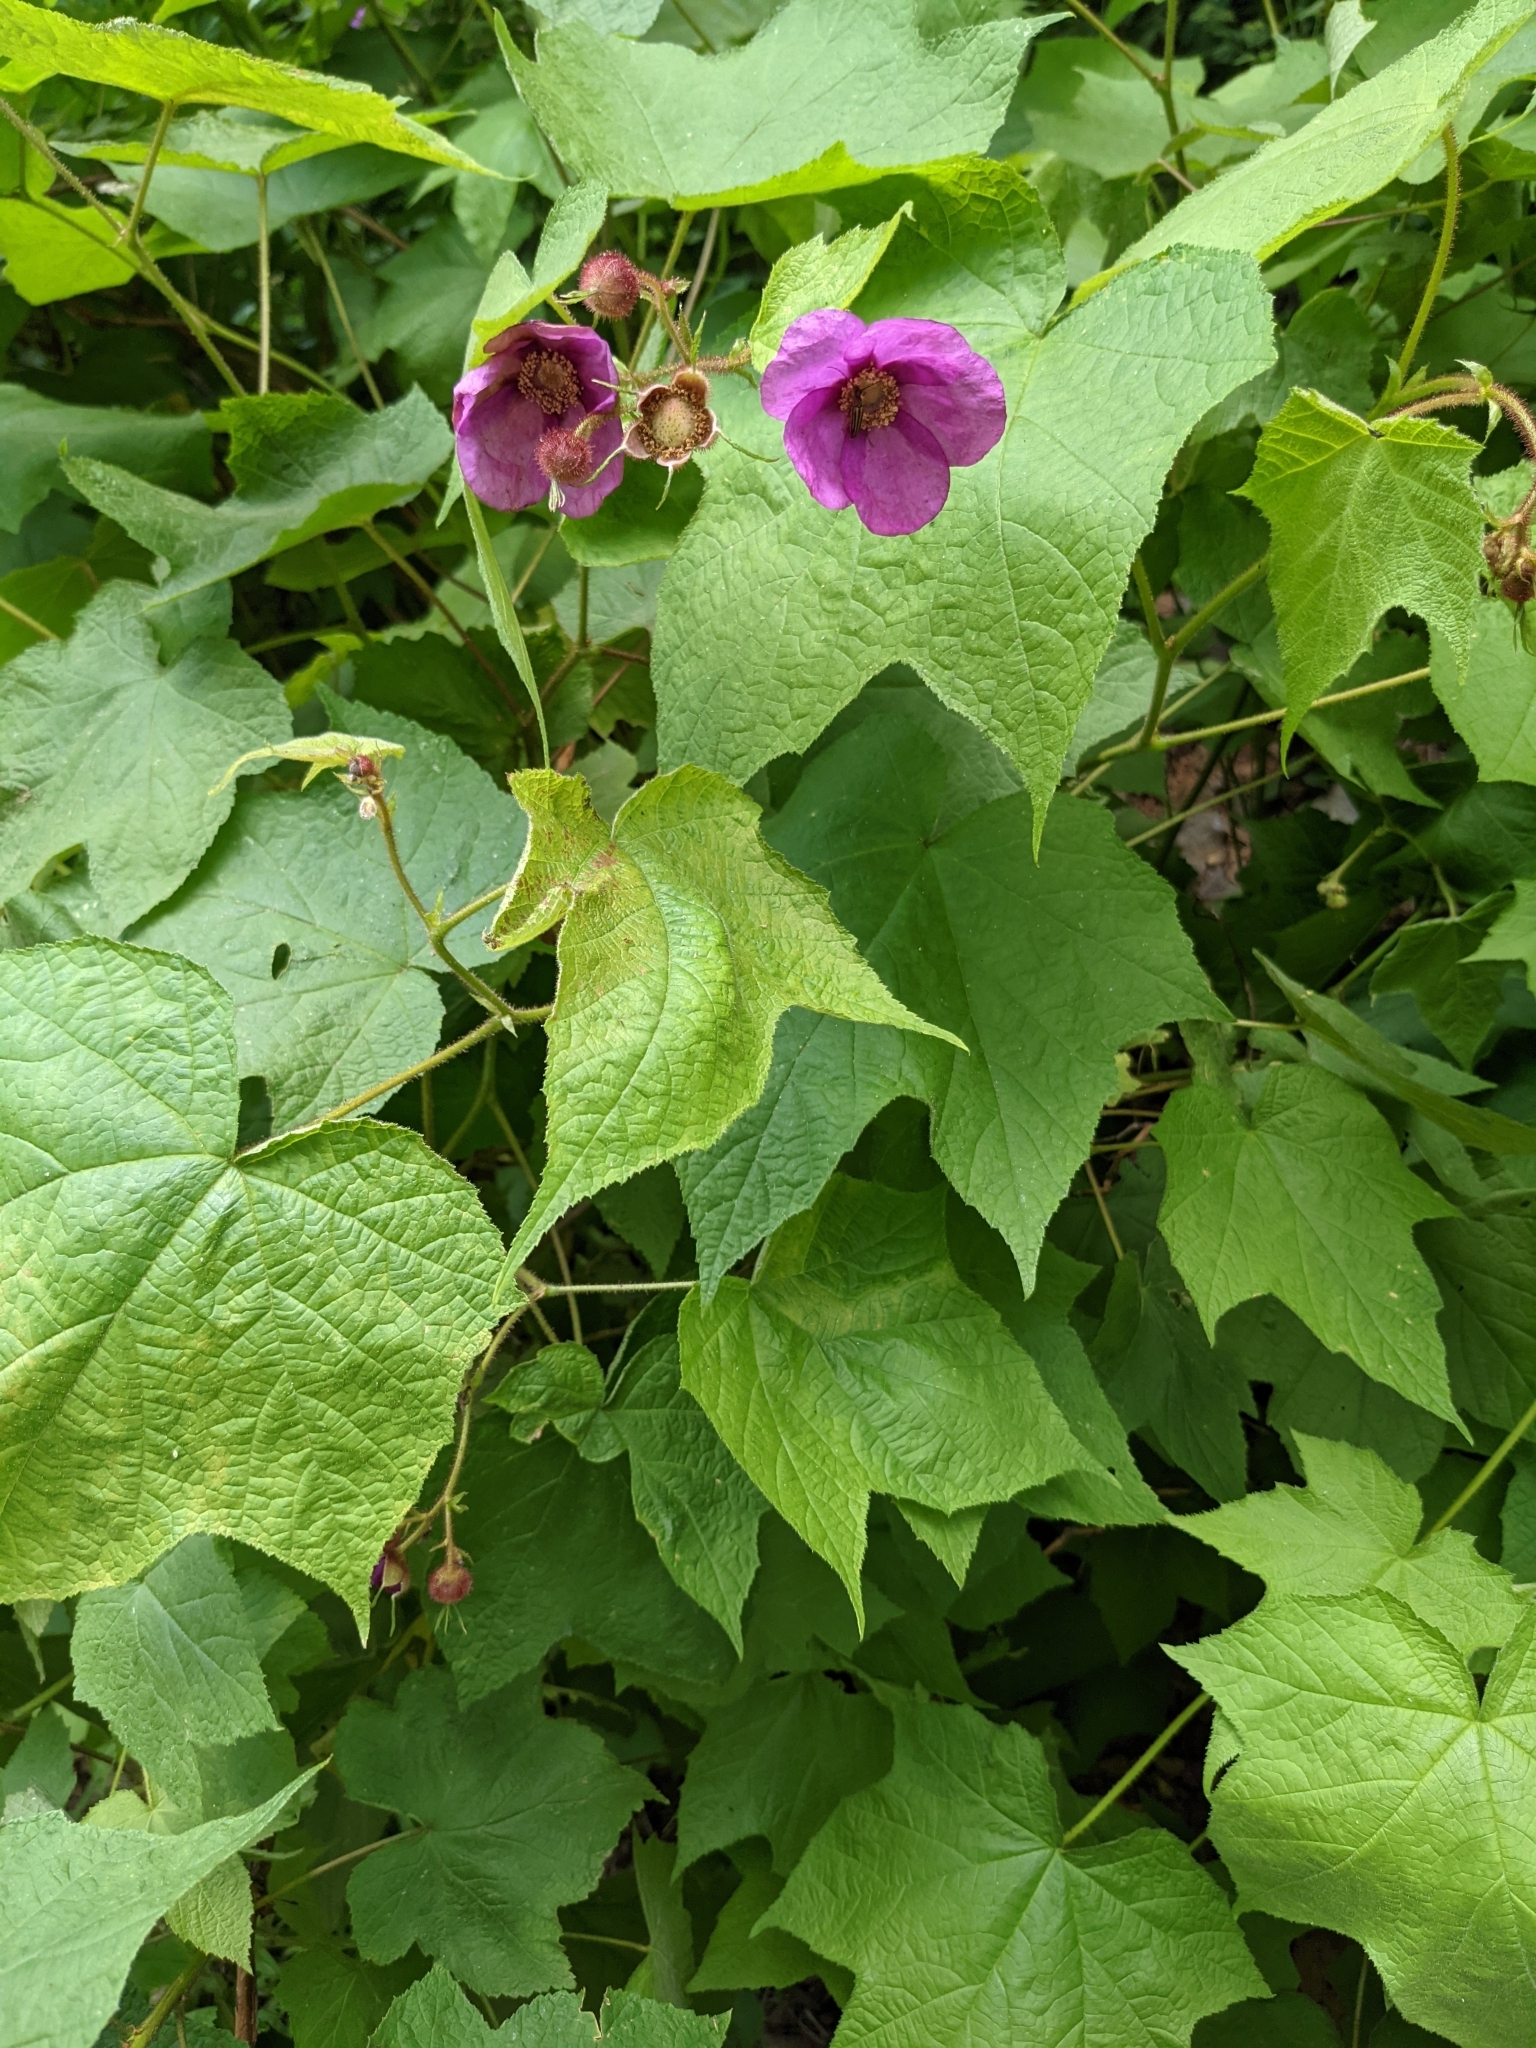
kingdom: Plantae
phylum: Tracheophyta
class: Magnoliopsida
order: Rosales
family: Rosaceae
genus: Rubus
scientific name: Rubus odoratus
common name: Purple-flowered raspberry
